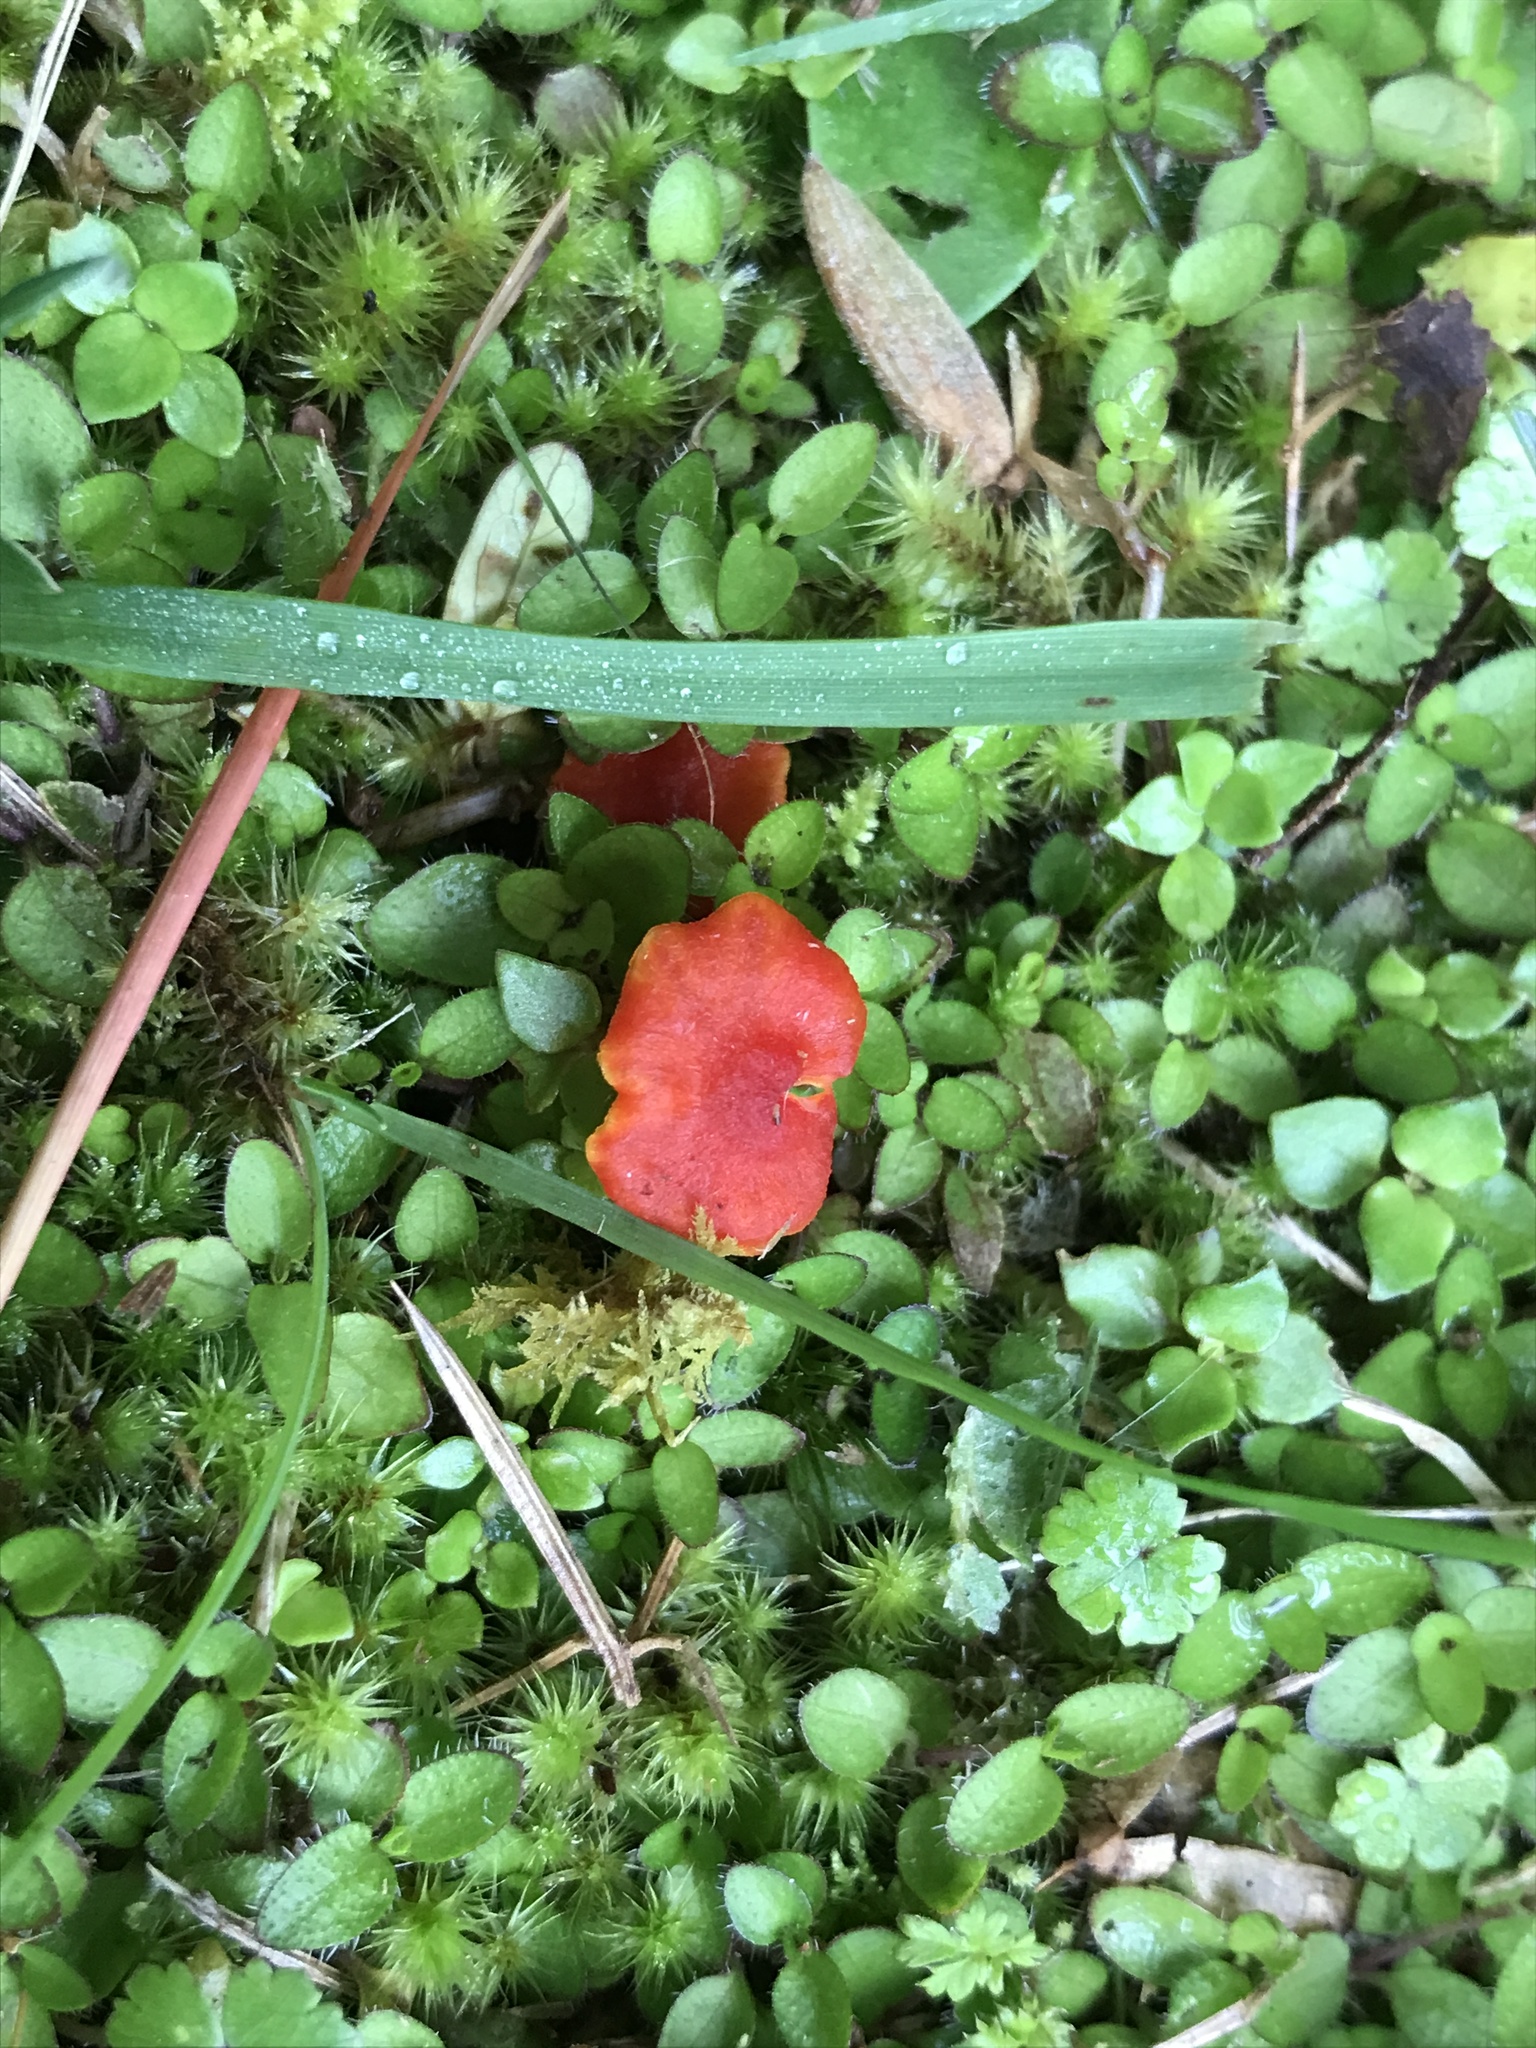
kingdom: Fungi
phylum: Basidiomycota
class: Agaricomycetes
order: Agaricales
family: Hygrophoraceae
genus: Hygrocybe
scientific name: Hygrocybe cantharellus
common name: Goblet waxcap
